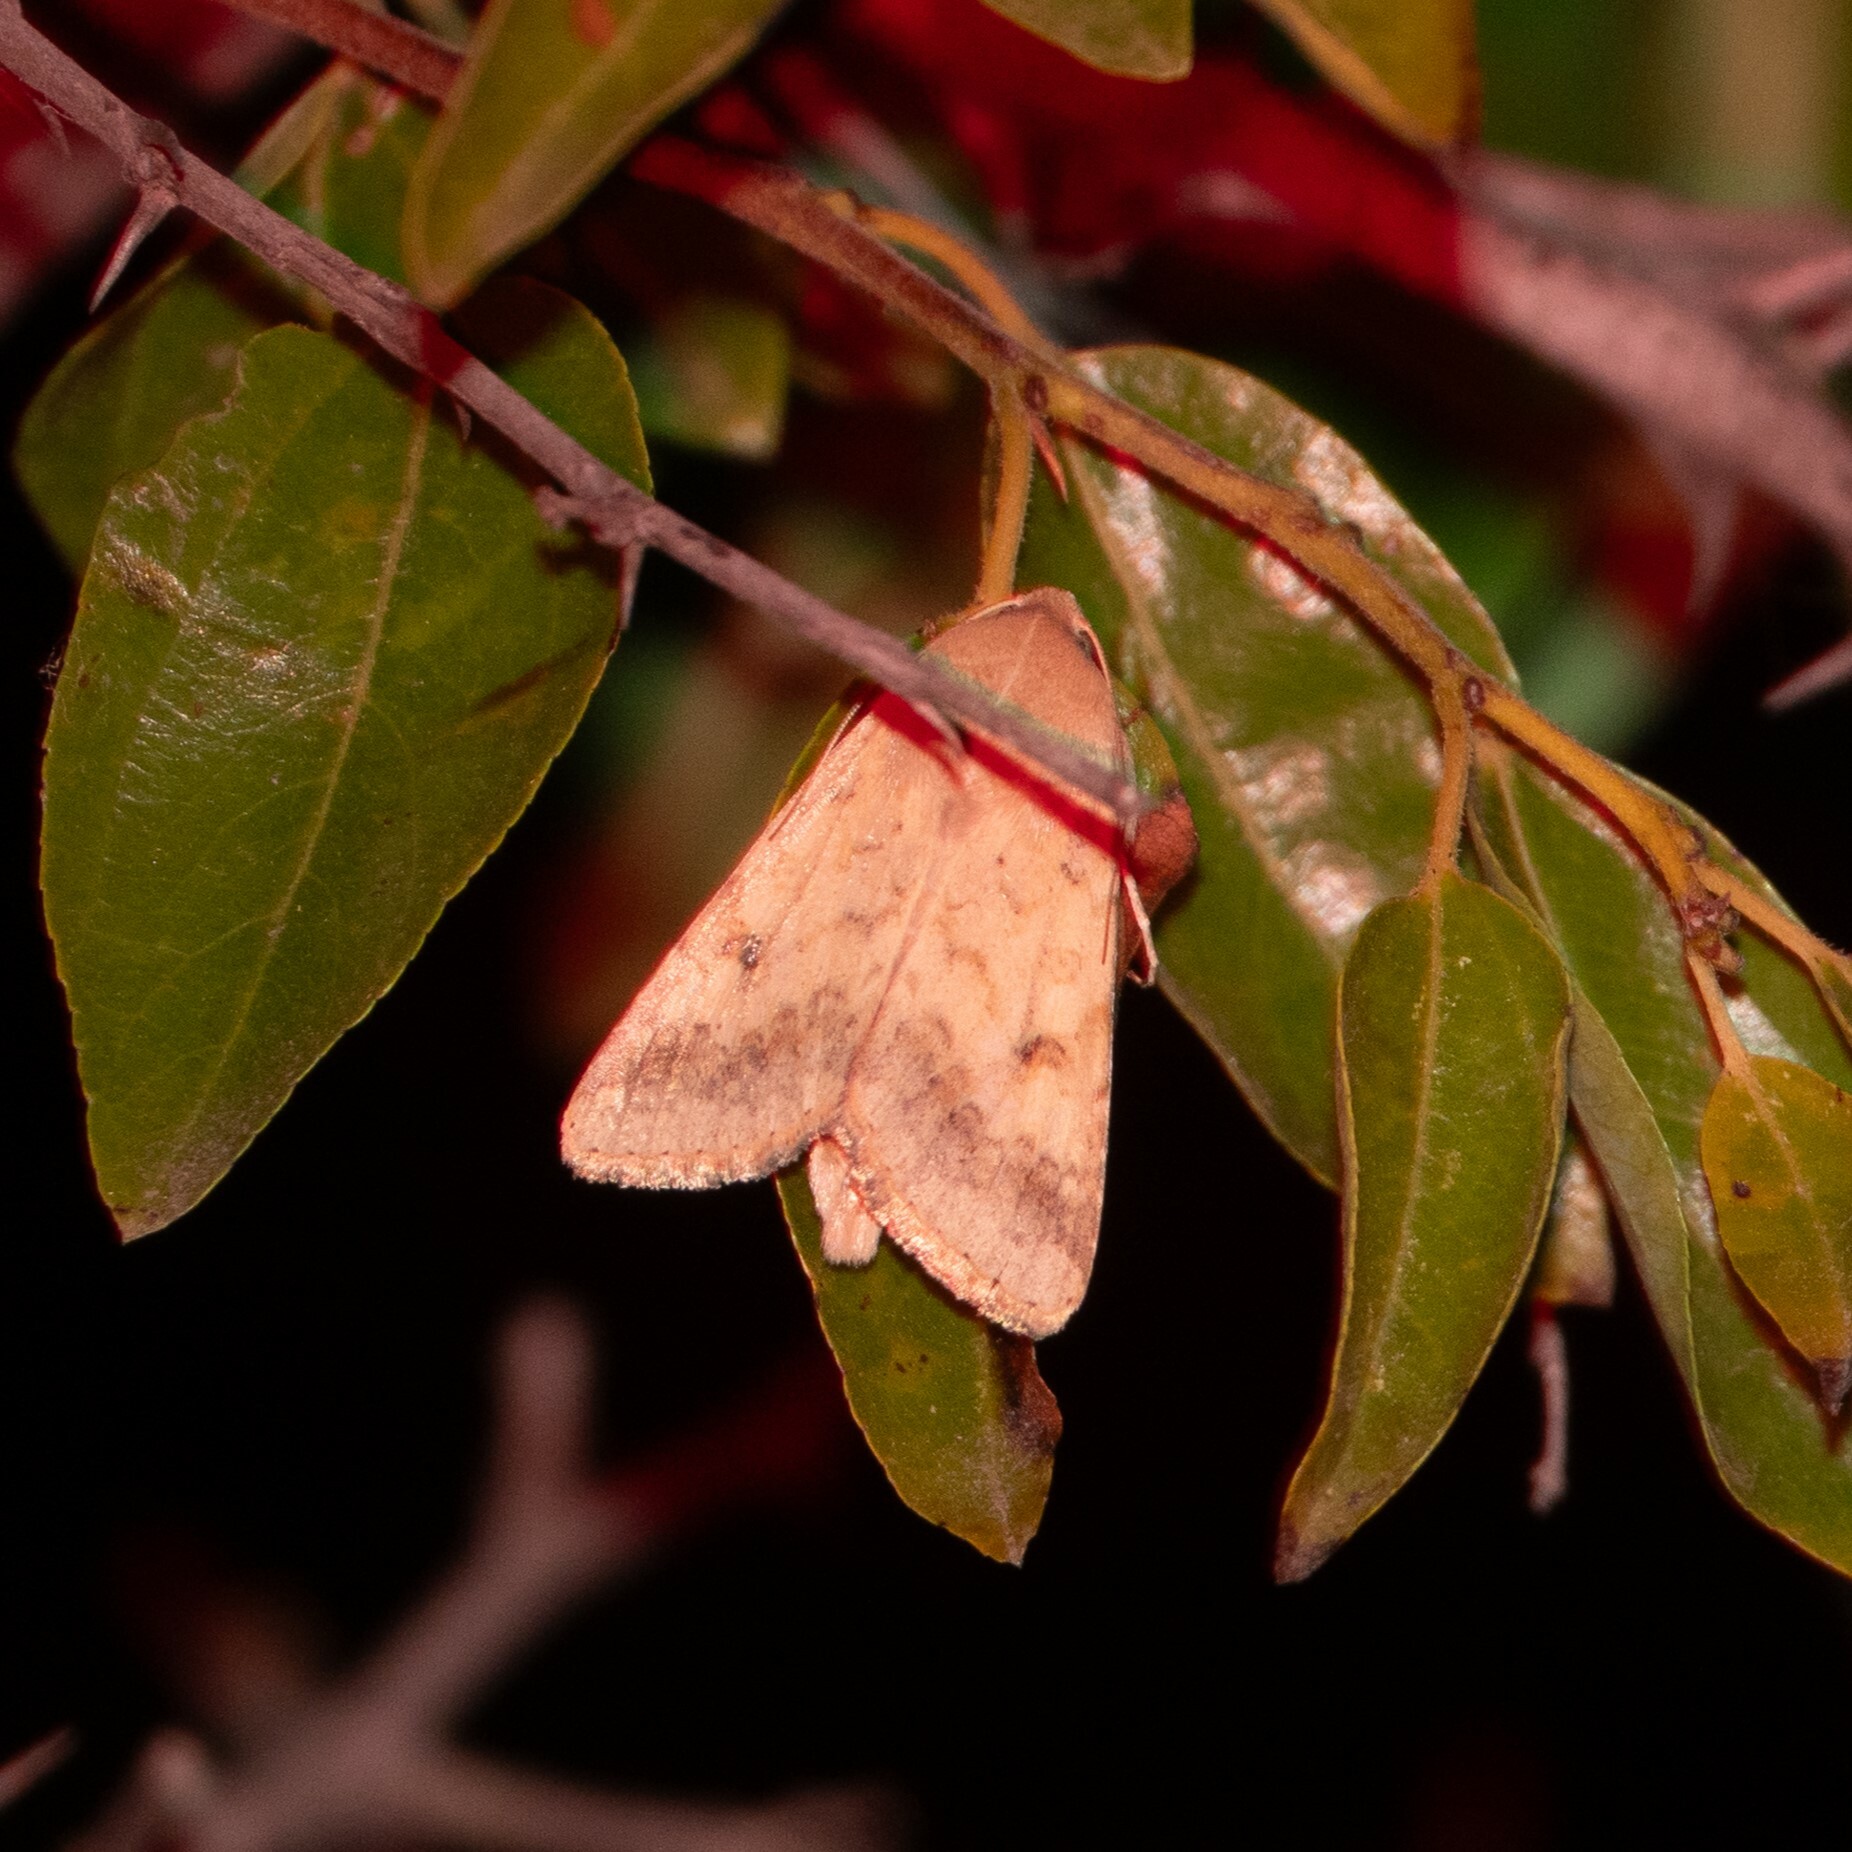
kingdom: Animalia
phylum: Arthropoda
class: Insecta
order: Lepidoptera
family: Noctuidae
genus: Helicoverpa
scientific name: Helicoverpa armigera
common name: Cotton bollworm
